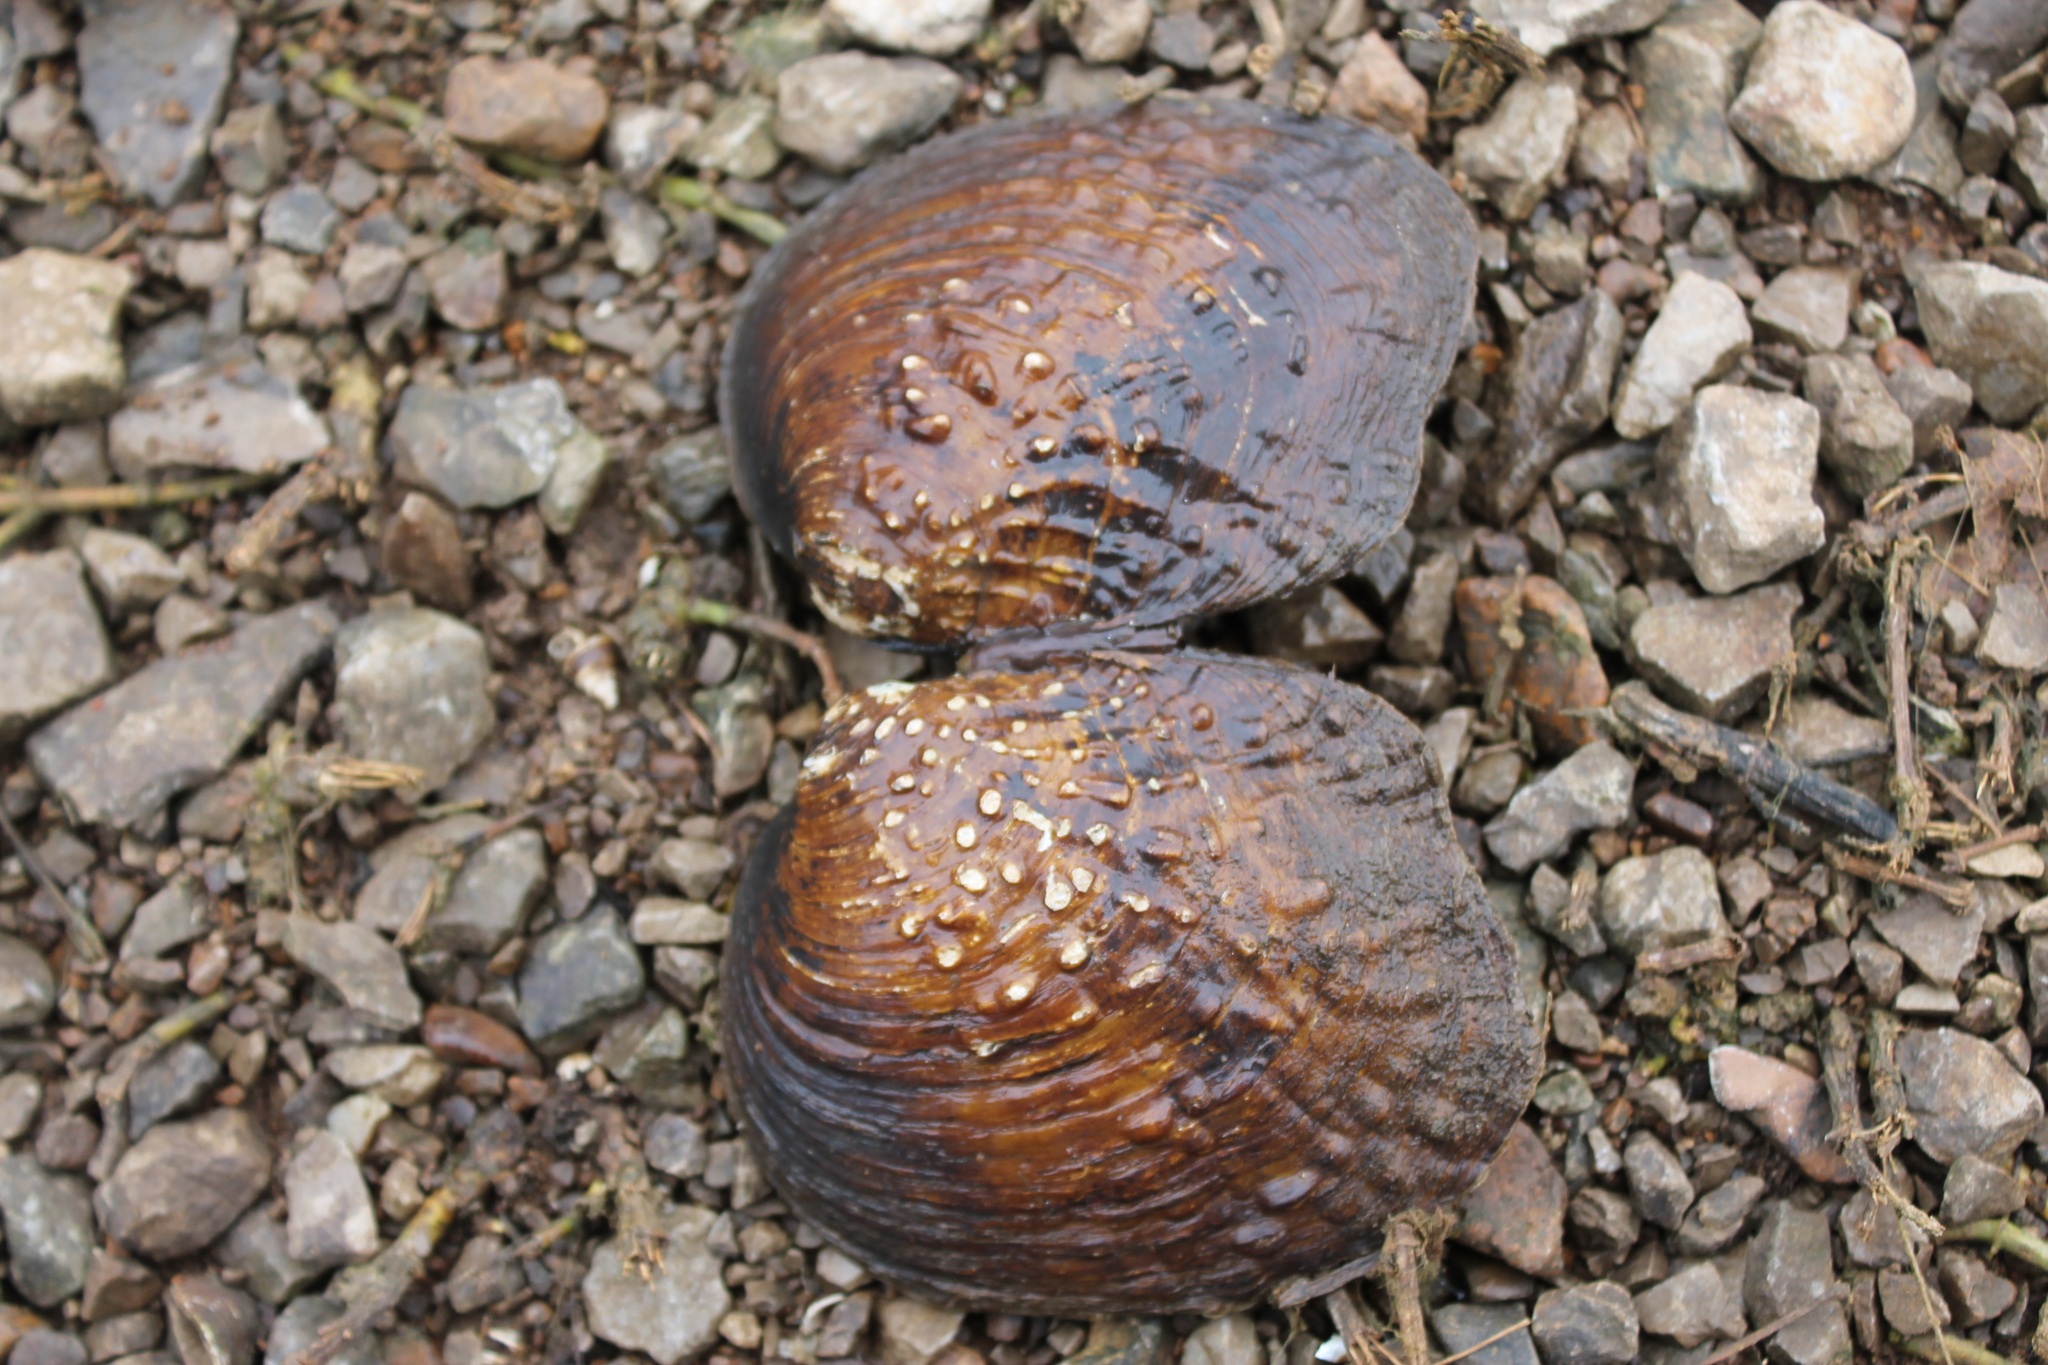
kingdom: Animalia
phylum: Mollusca
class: Bivalvia
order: Unionida
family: Unionidae
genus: Cyclonaias
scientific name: Cyclonaias tuberculata
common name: Purple wartyback
